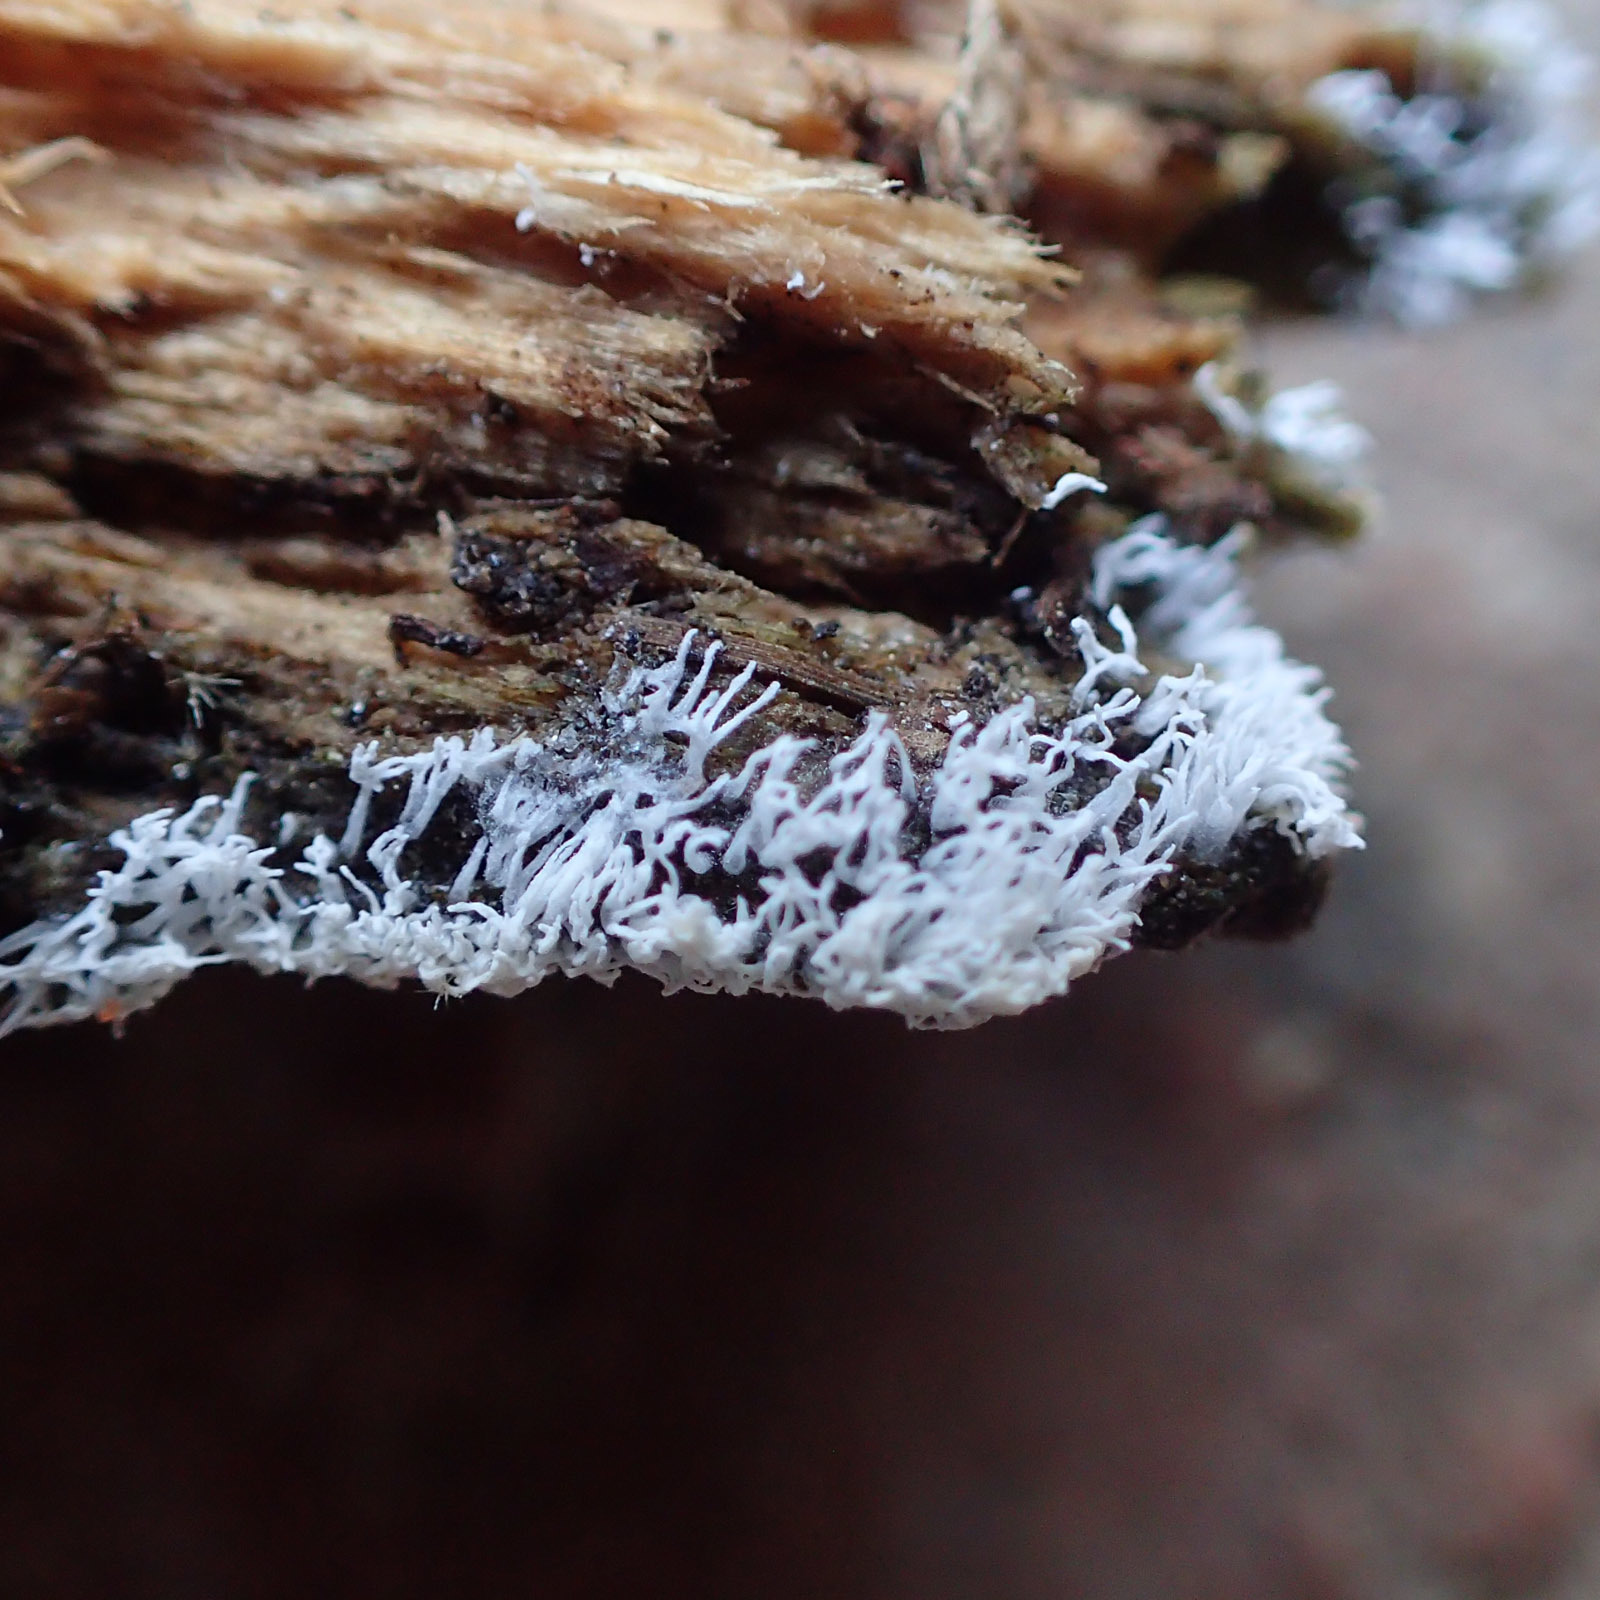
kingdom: Protozoa
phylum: Mycetozoa
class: Protosteliomycetes
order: Ceratiomyxales
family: Ceratiomyxaceae
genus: Ceratiomyxa
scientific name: Ceratiomyxa fruticulosa
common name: Honeycomb coral slime mold
